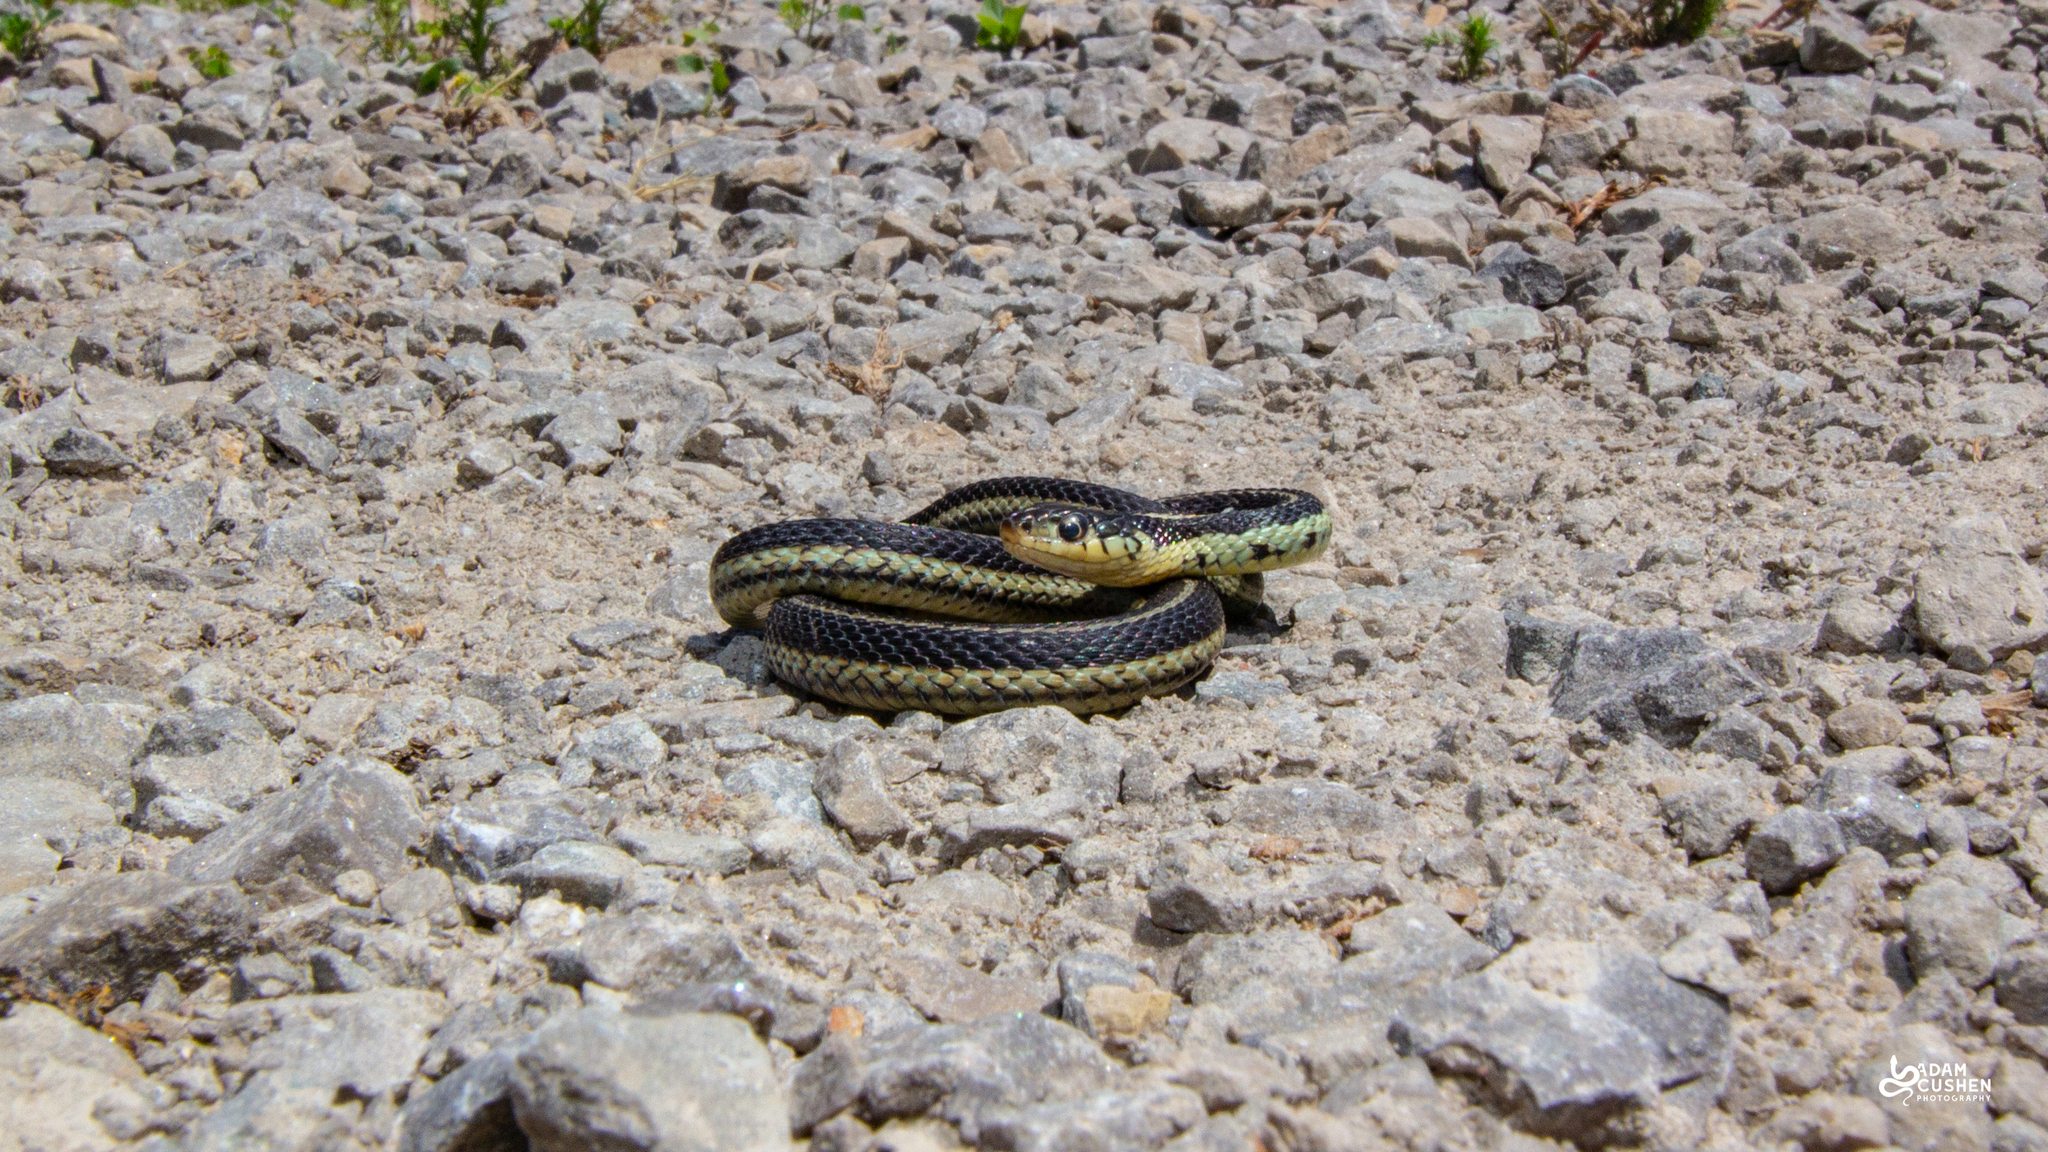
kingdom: Animalia
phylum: Chordata
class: Squamata
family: Colubridae
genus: Thamnophis
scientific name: Thamnophis sirtalis
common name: Common garter snake
